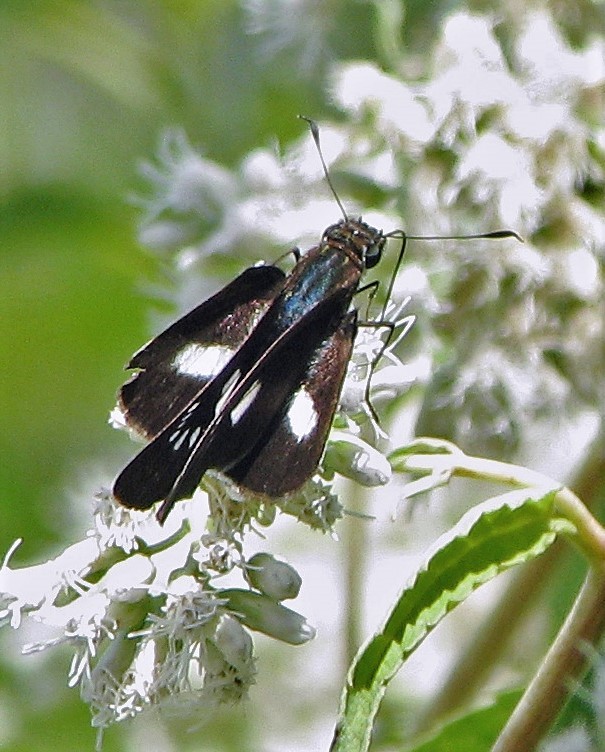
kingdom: Animalia
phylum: Arthropoda
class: Insecta
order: Lepidoptera
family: Hesperiidae
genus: Zenis
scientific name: Zenis jebus
